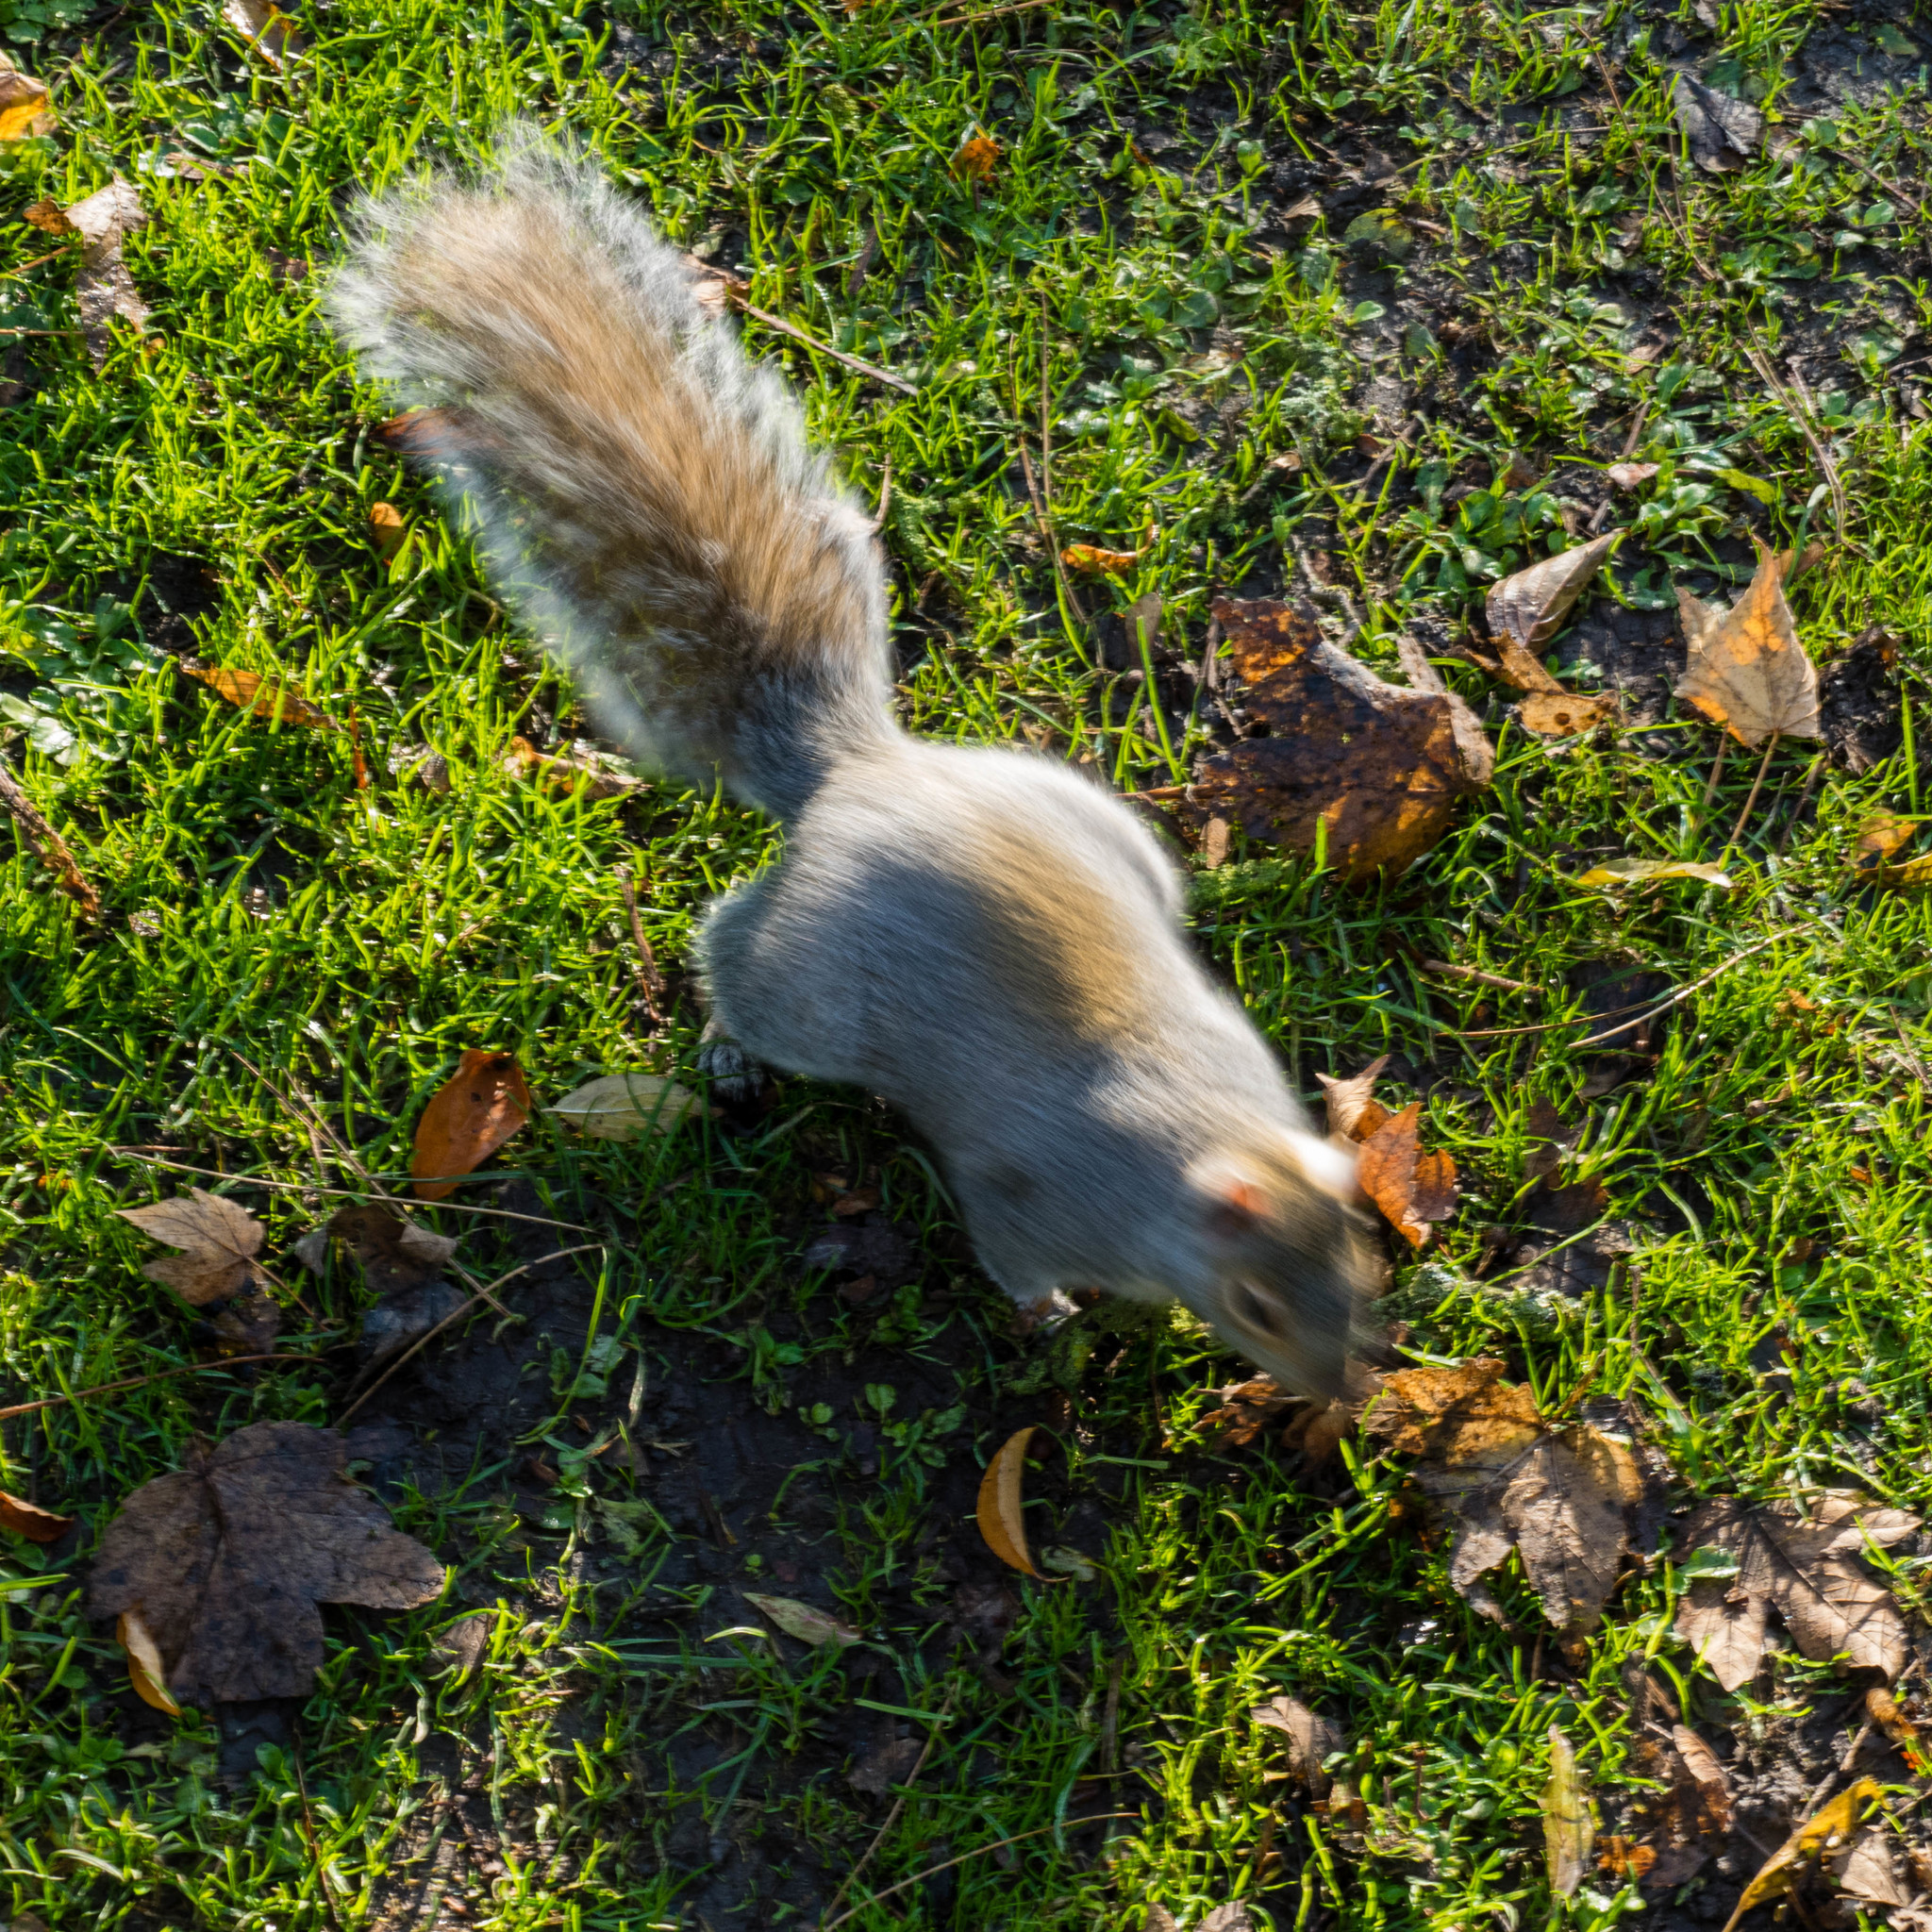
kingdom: Animalia
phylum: Chordata
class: Mammalia
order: Rodentia
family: Sciuridae
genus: Sciurus
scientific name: Sciurus carolinensis
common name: Eastern gray squirrel
